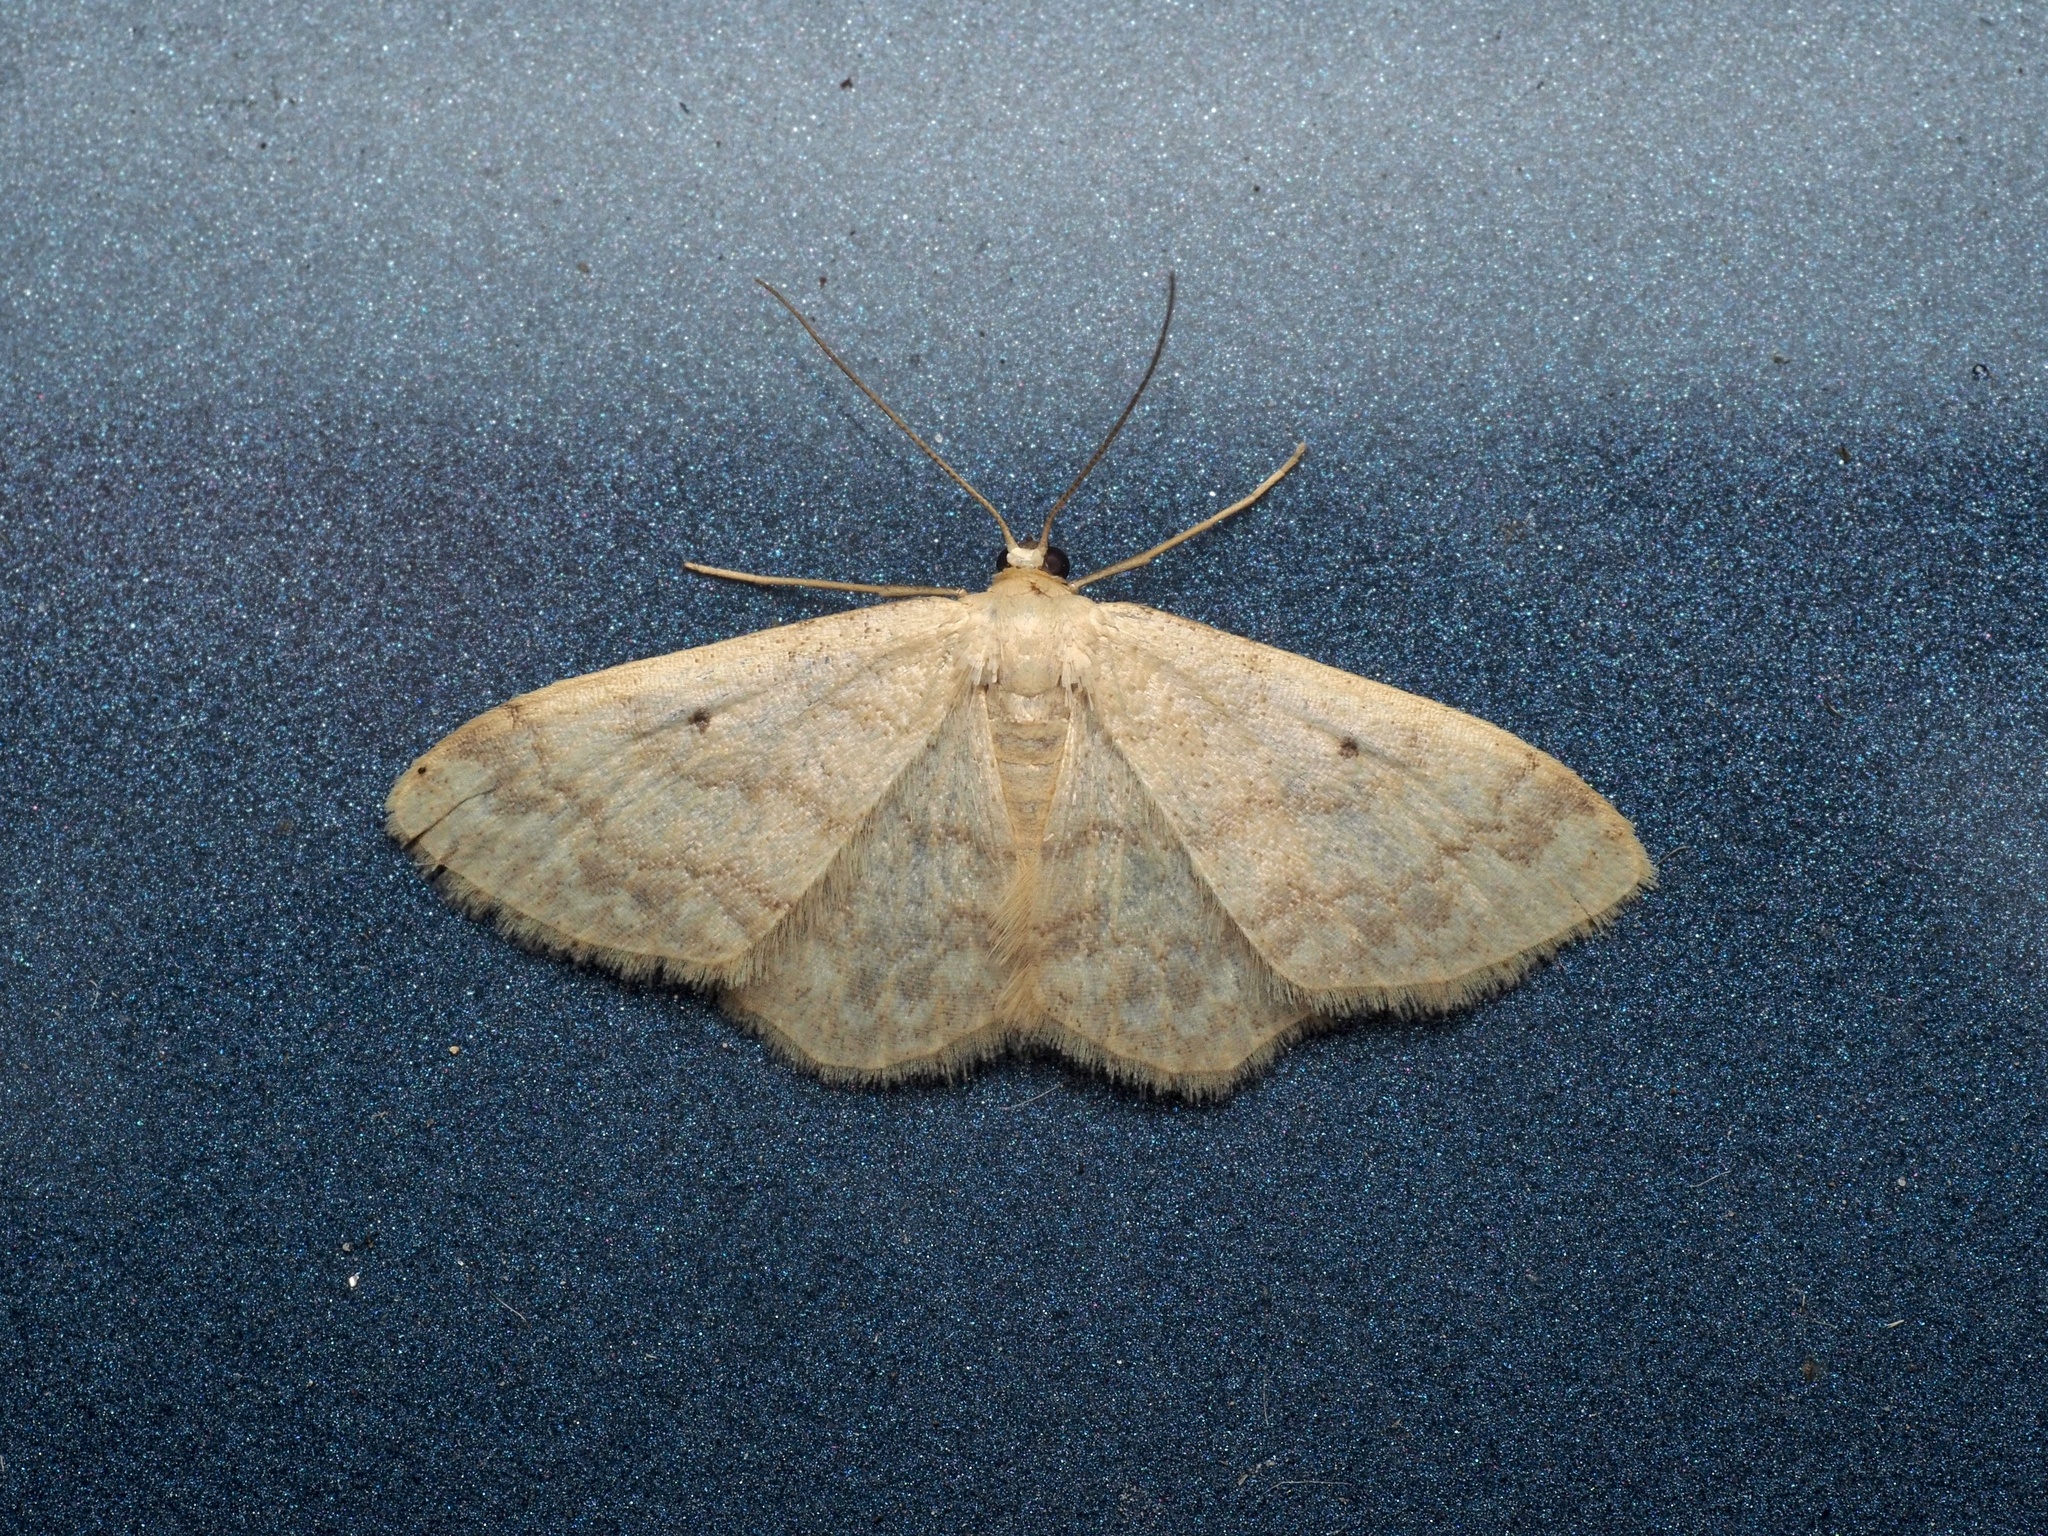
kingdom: Animalia
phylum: Arthropoda
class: Insecta
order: Lepidoptera
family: Geometridae
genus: Idaea
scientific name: Idaea biselata
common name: Small fan-footed wave
